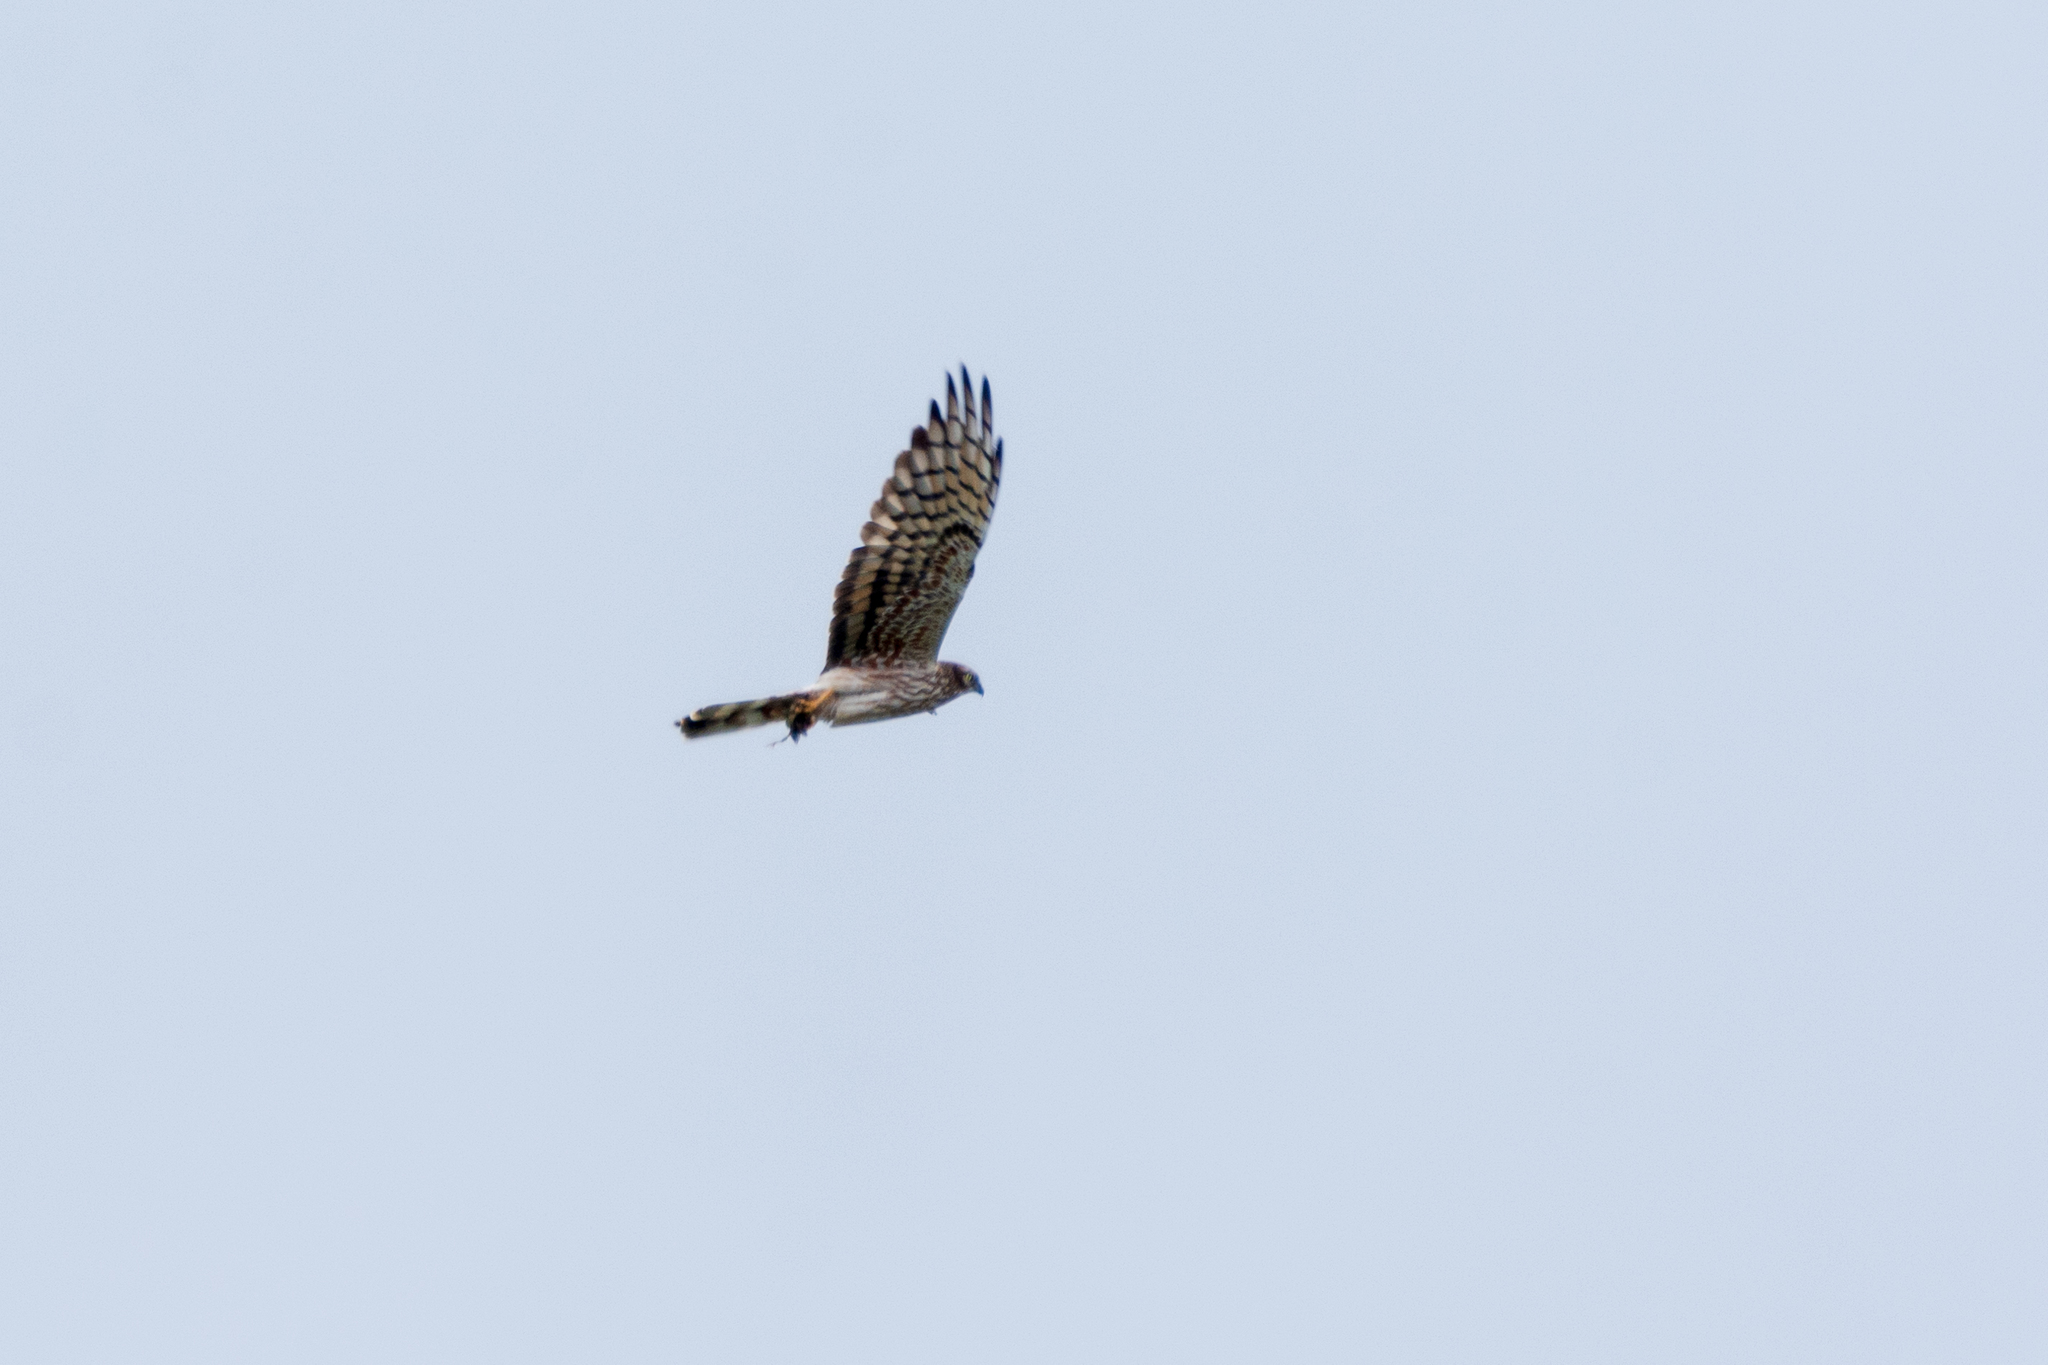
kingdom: Animalia
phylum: Chordata
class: Aves
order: Accipitriformes
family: Accipitridae
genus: Circus
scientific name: Circus pygargus
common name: Montagu's harrier
